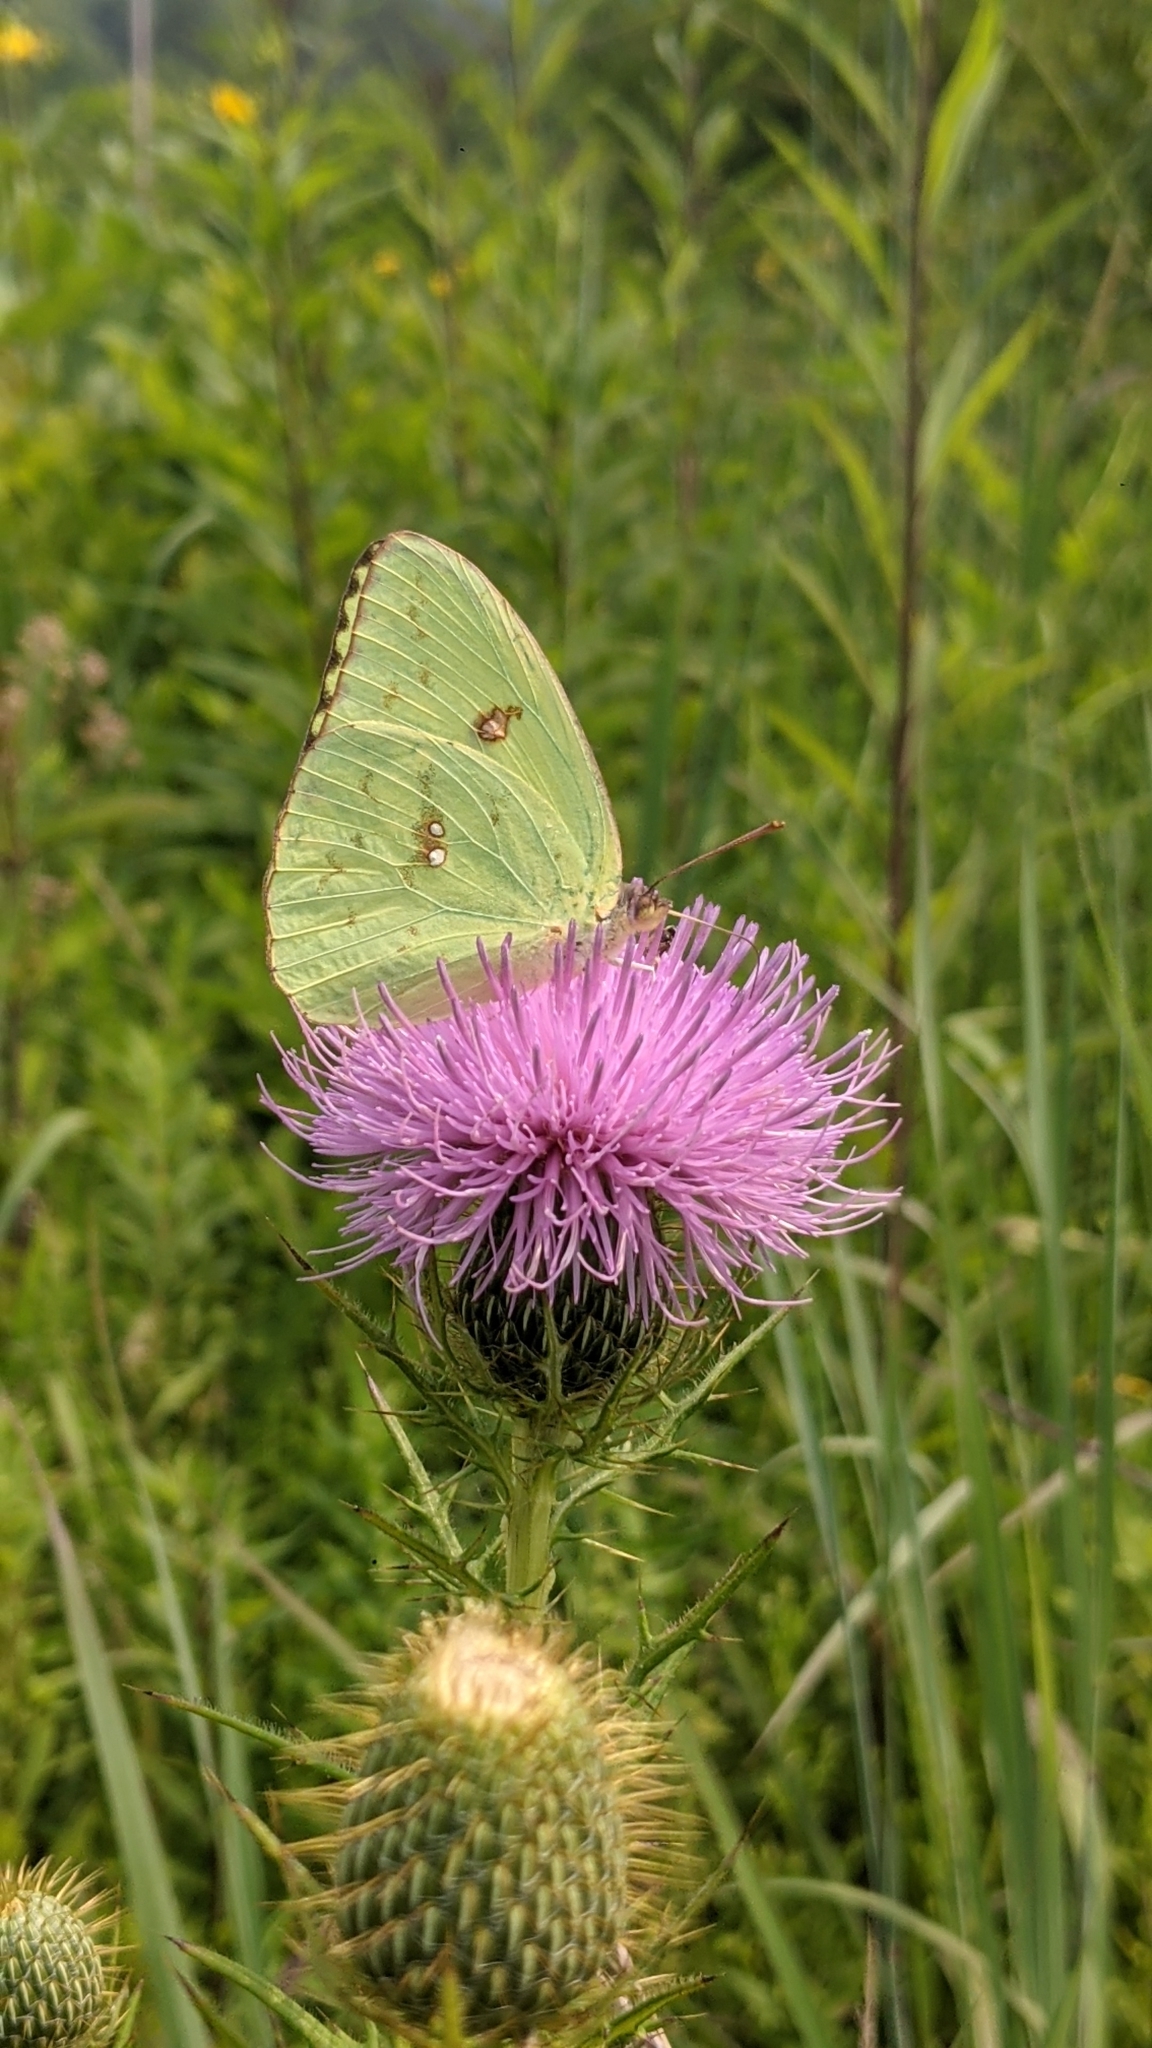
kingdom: Animalia
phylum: Arthropoda
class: Insecta
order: Lepidoptera
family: Pieridae
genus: Phoebis
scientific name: Phoebis sennae
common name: Cloudless sulphur
